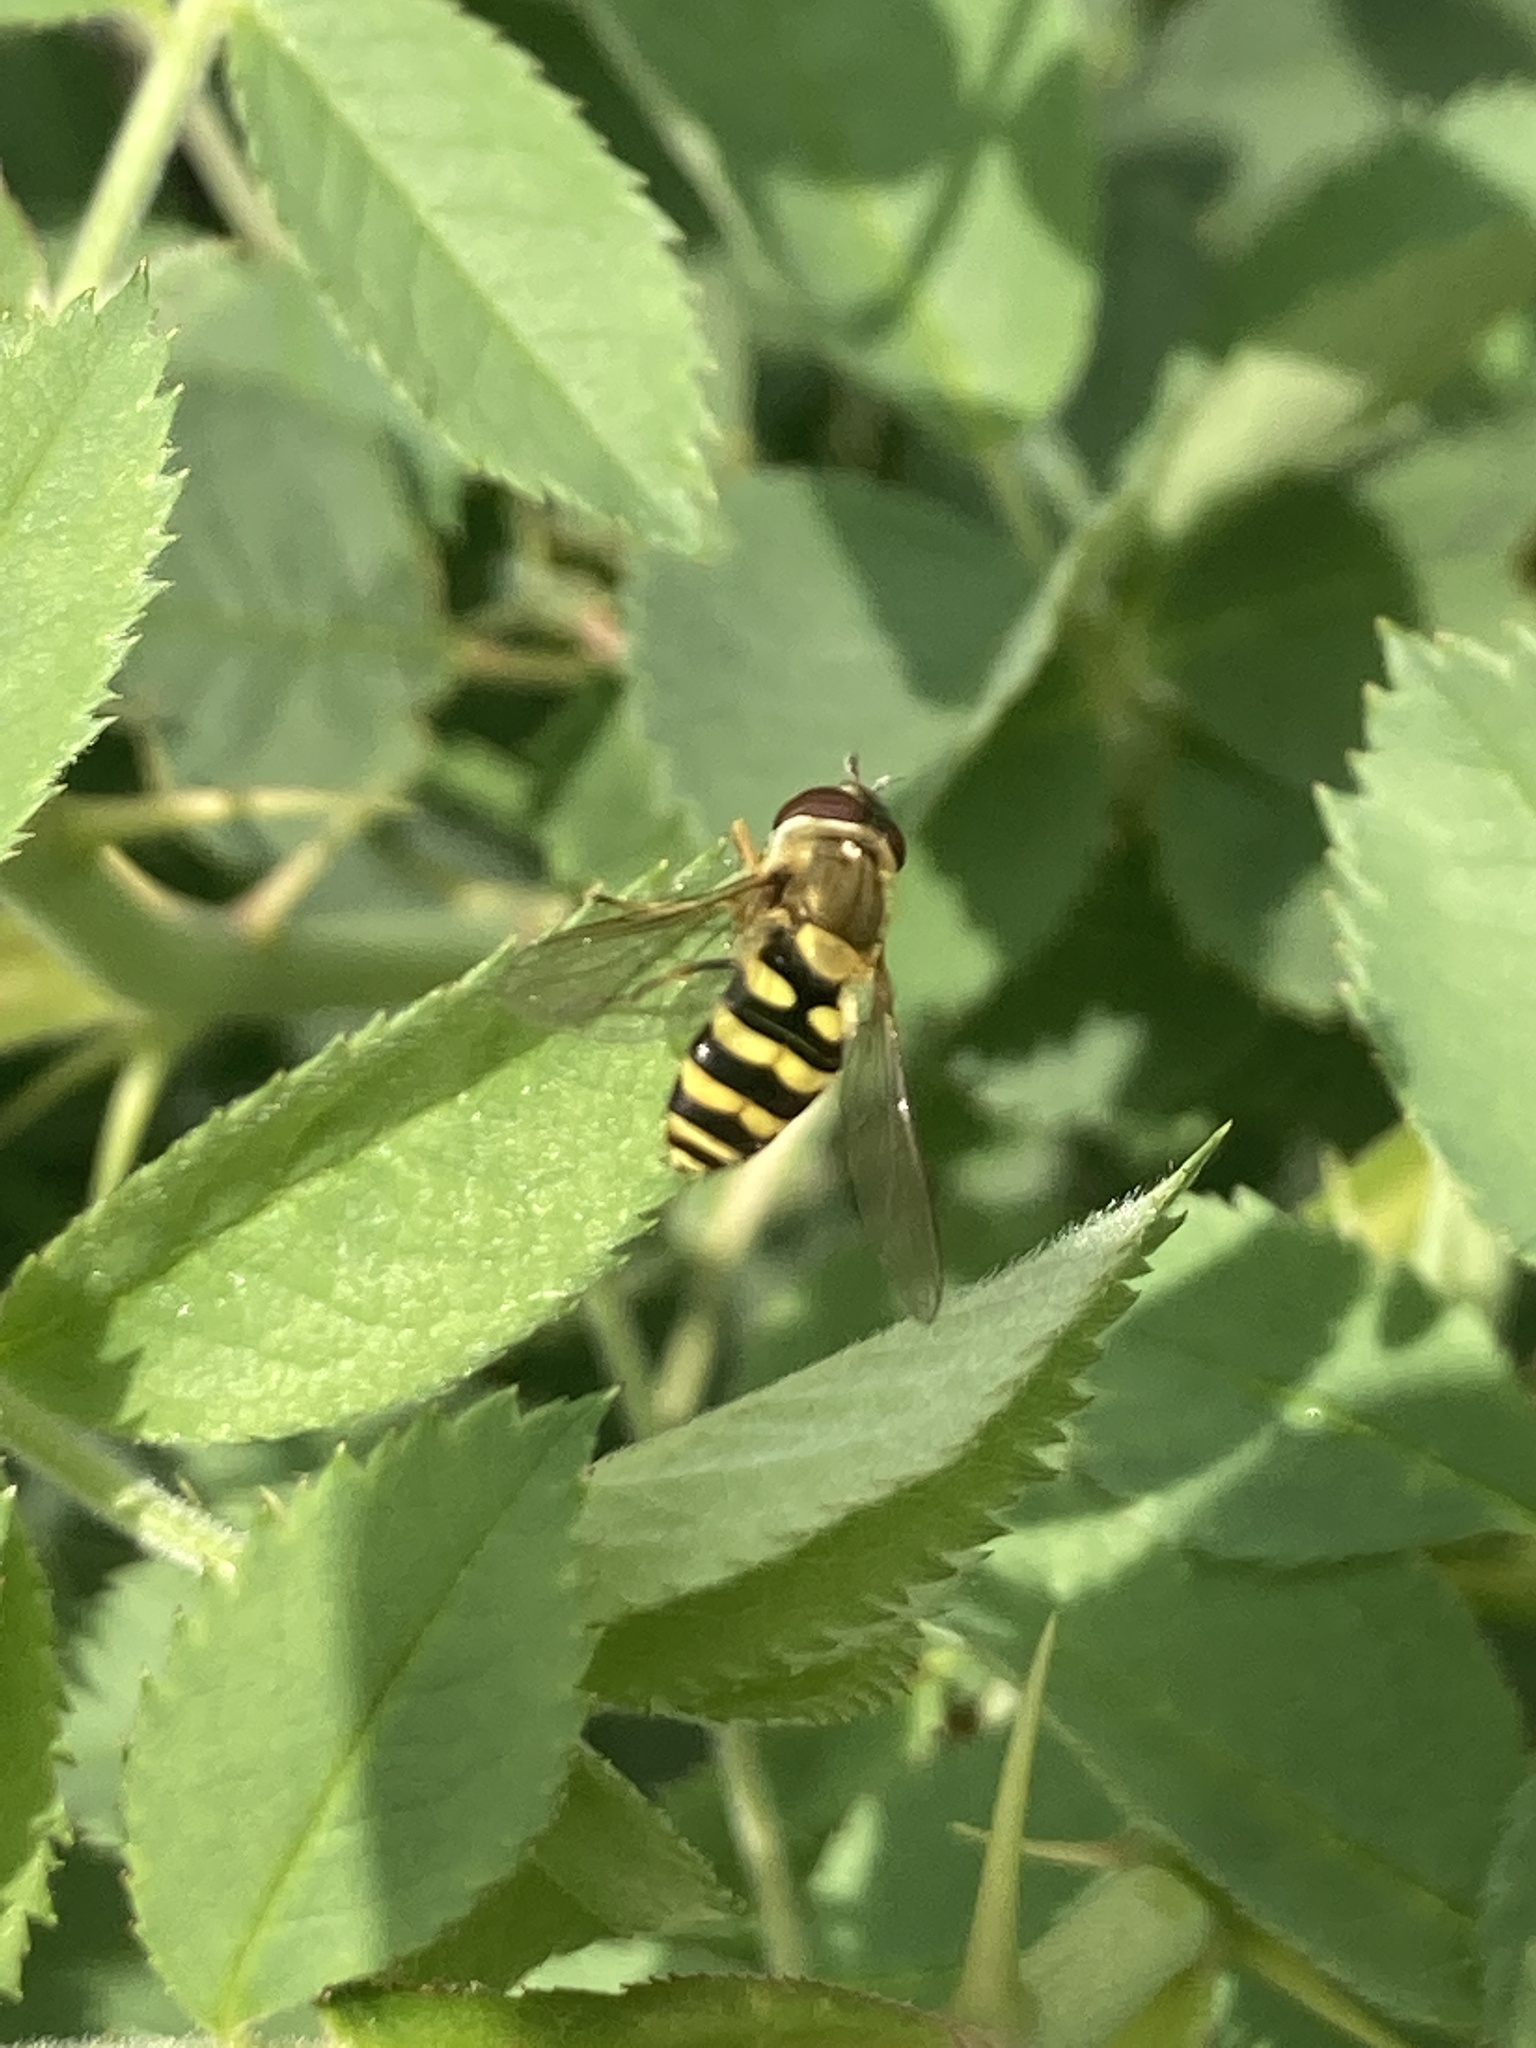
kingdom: Animalia
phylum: Arthropoda
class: Insecta
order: Diptera
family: Syrphidae
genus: Syrphus
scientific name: Syrphus
